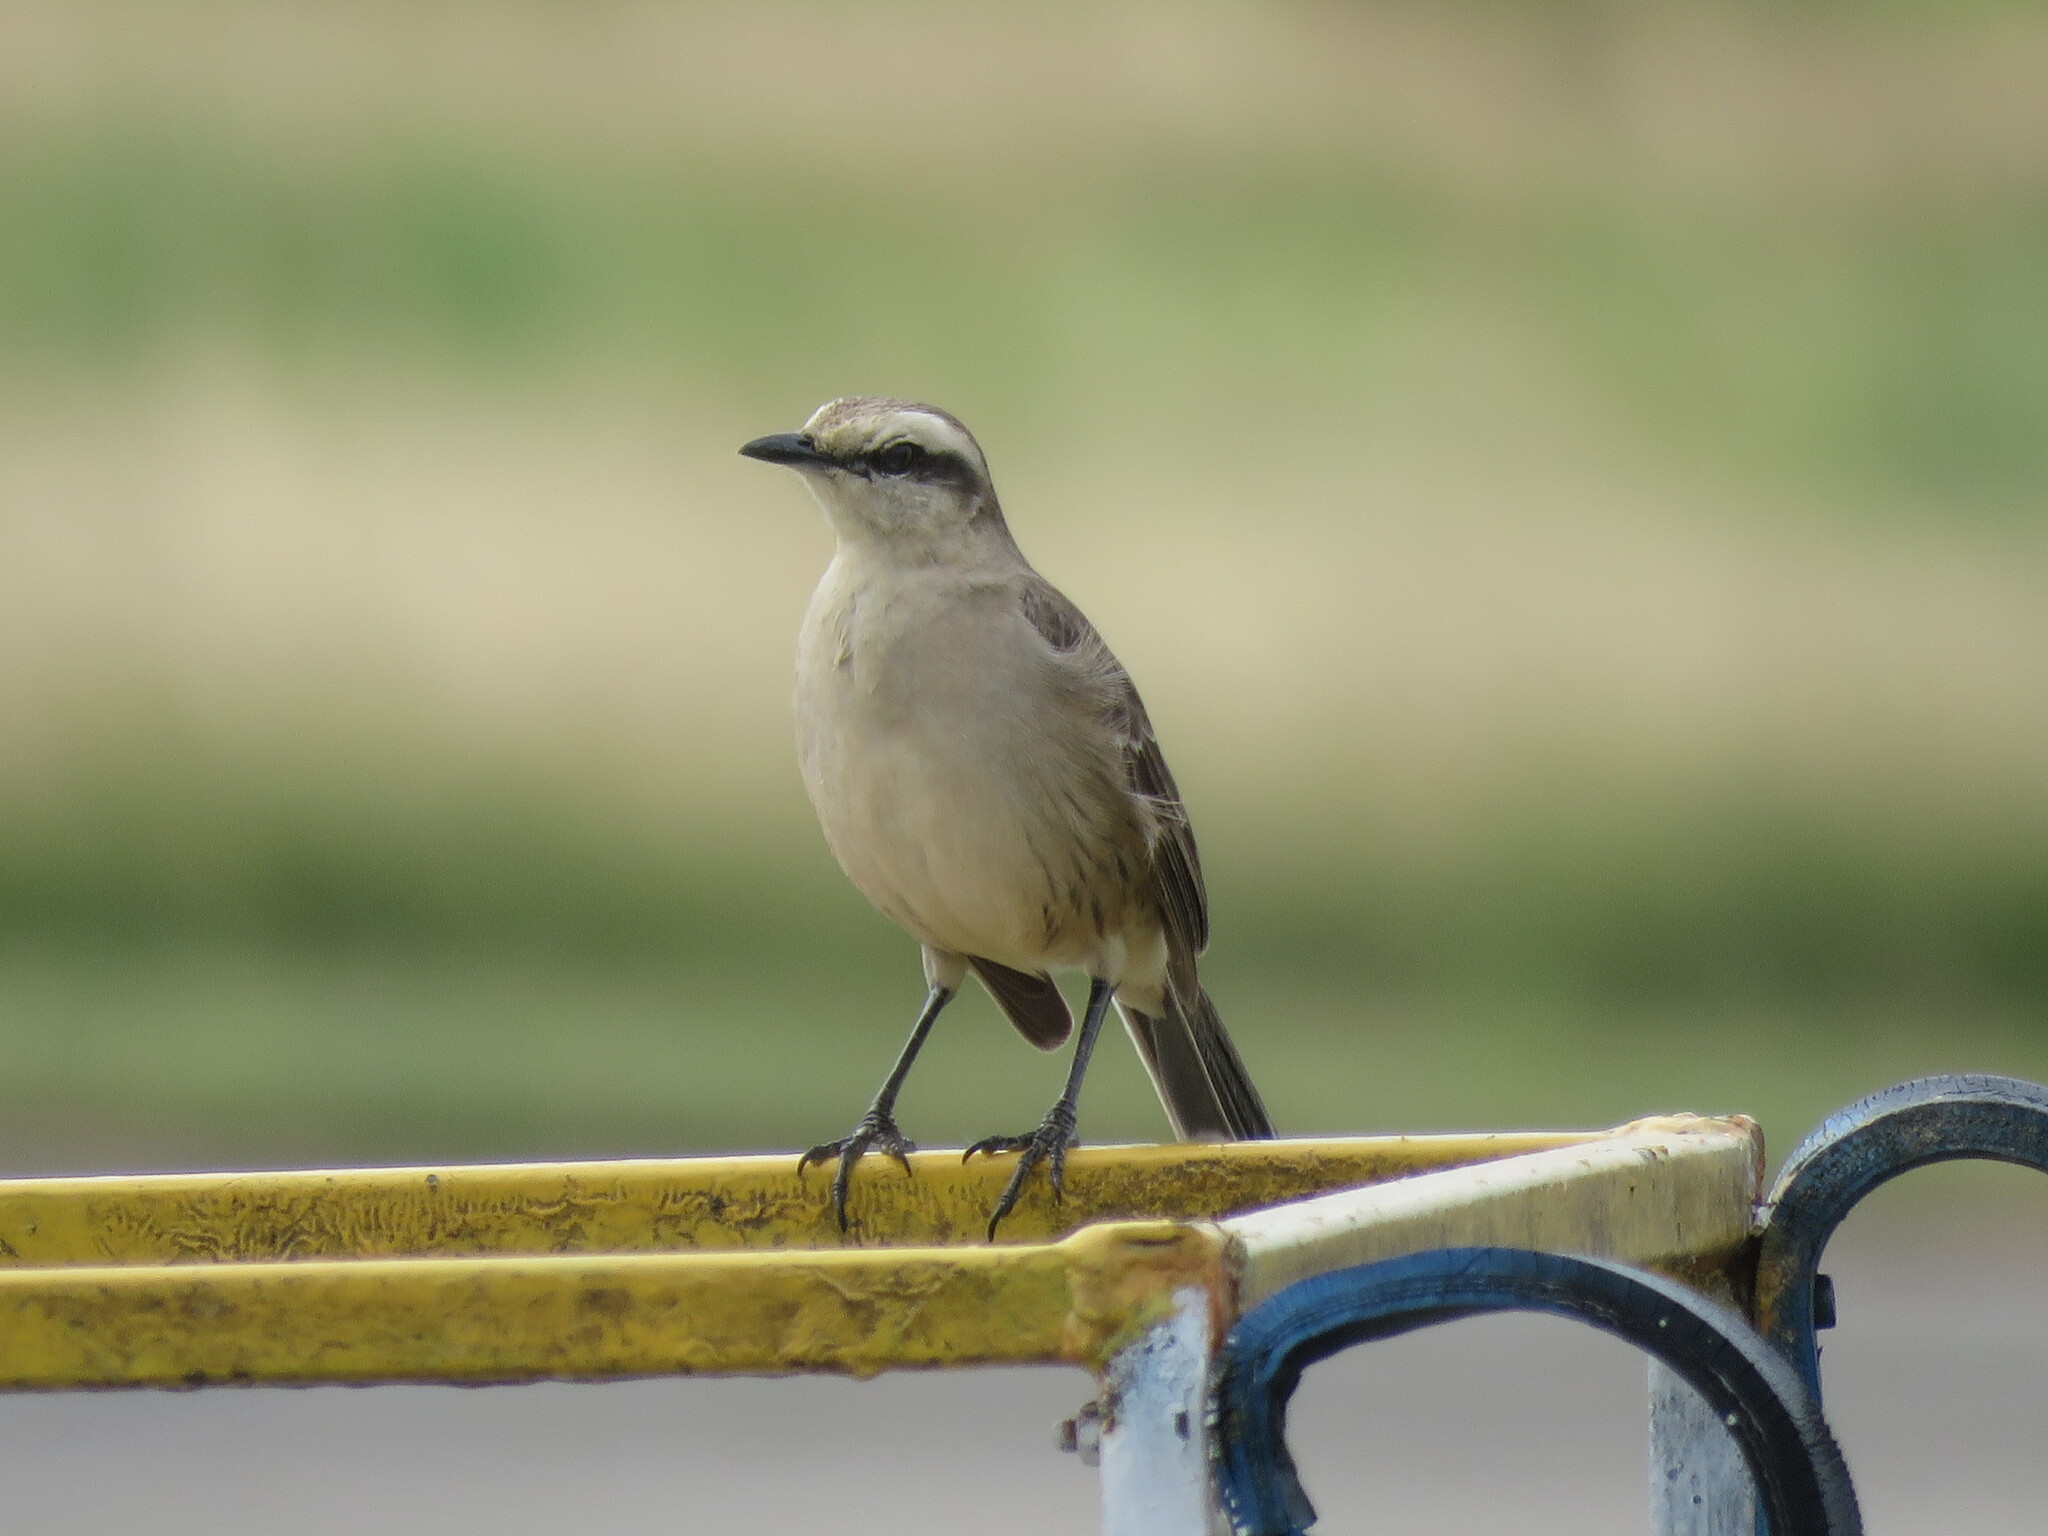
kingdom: Animalia
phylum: Chordata
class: Aves
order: Passeriformes
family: Mimidae
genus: Mimus
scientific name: Mimus saturninus
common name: Chalk-browed mockingbird
